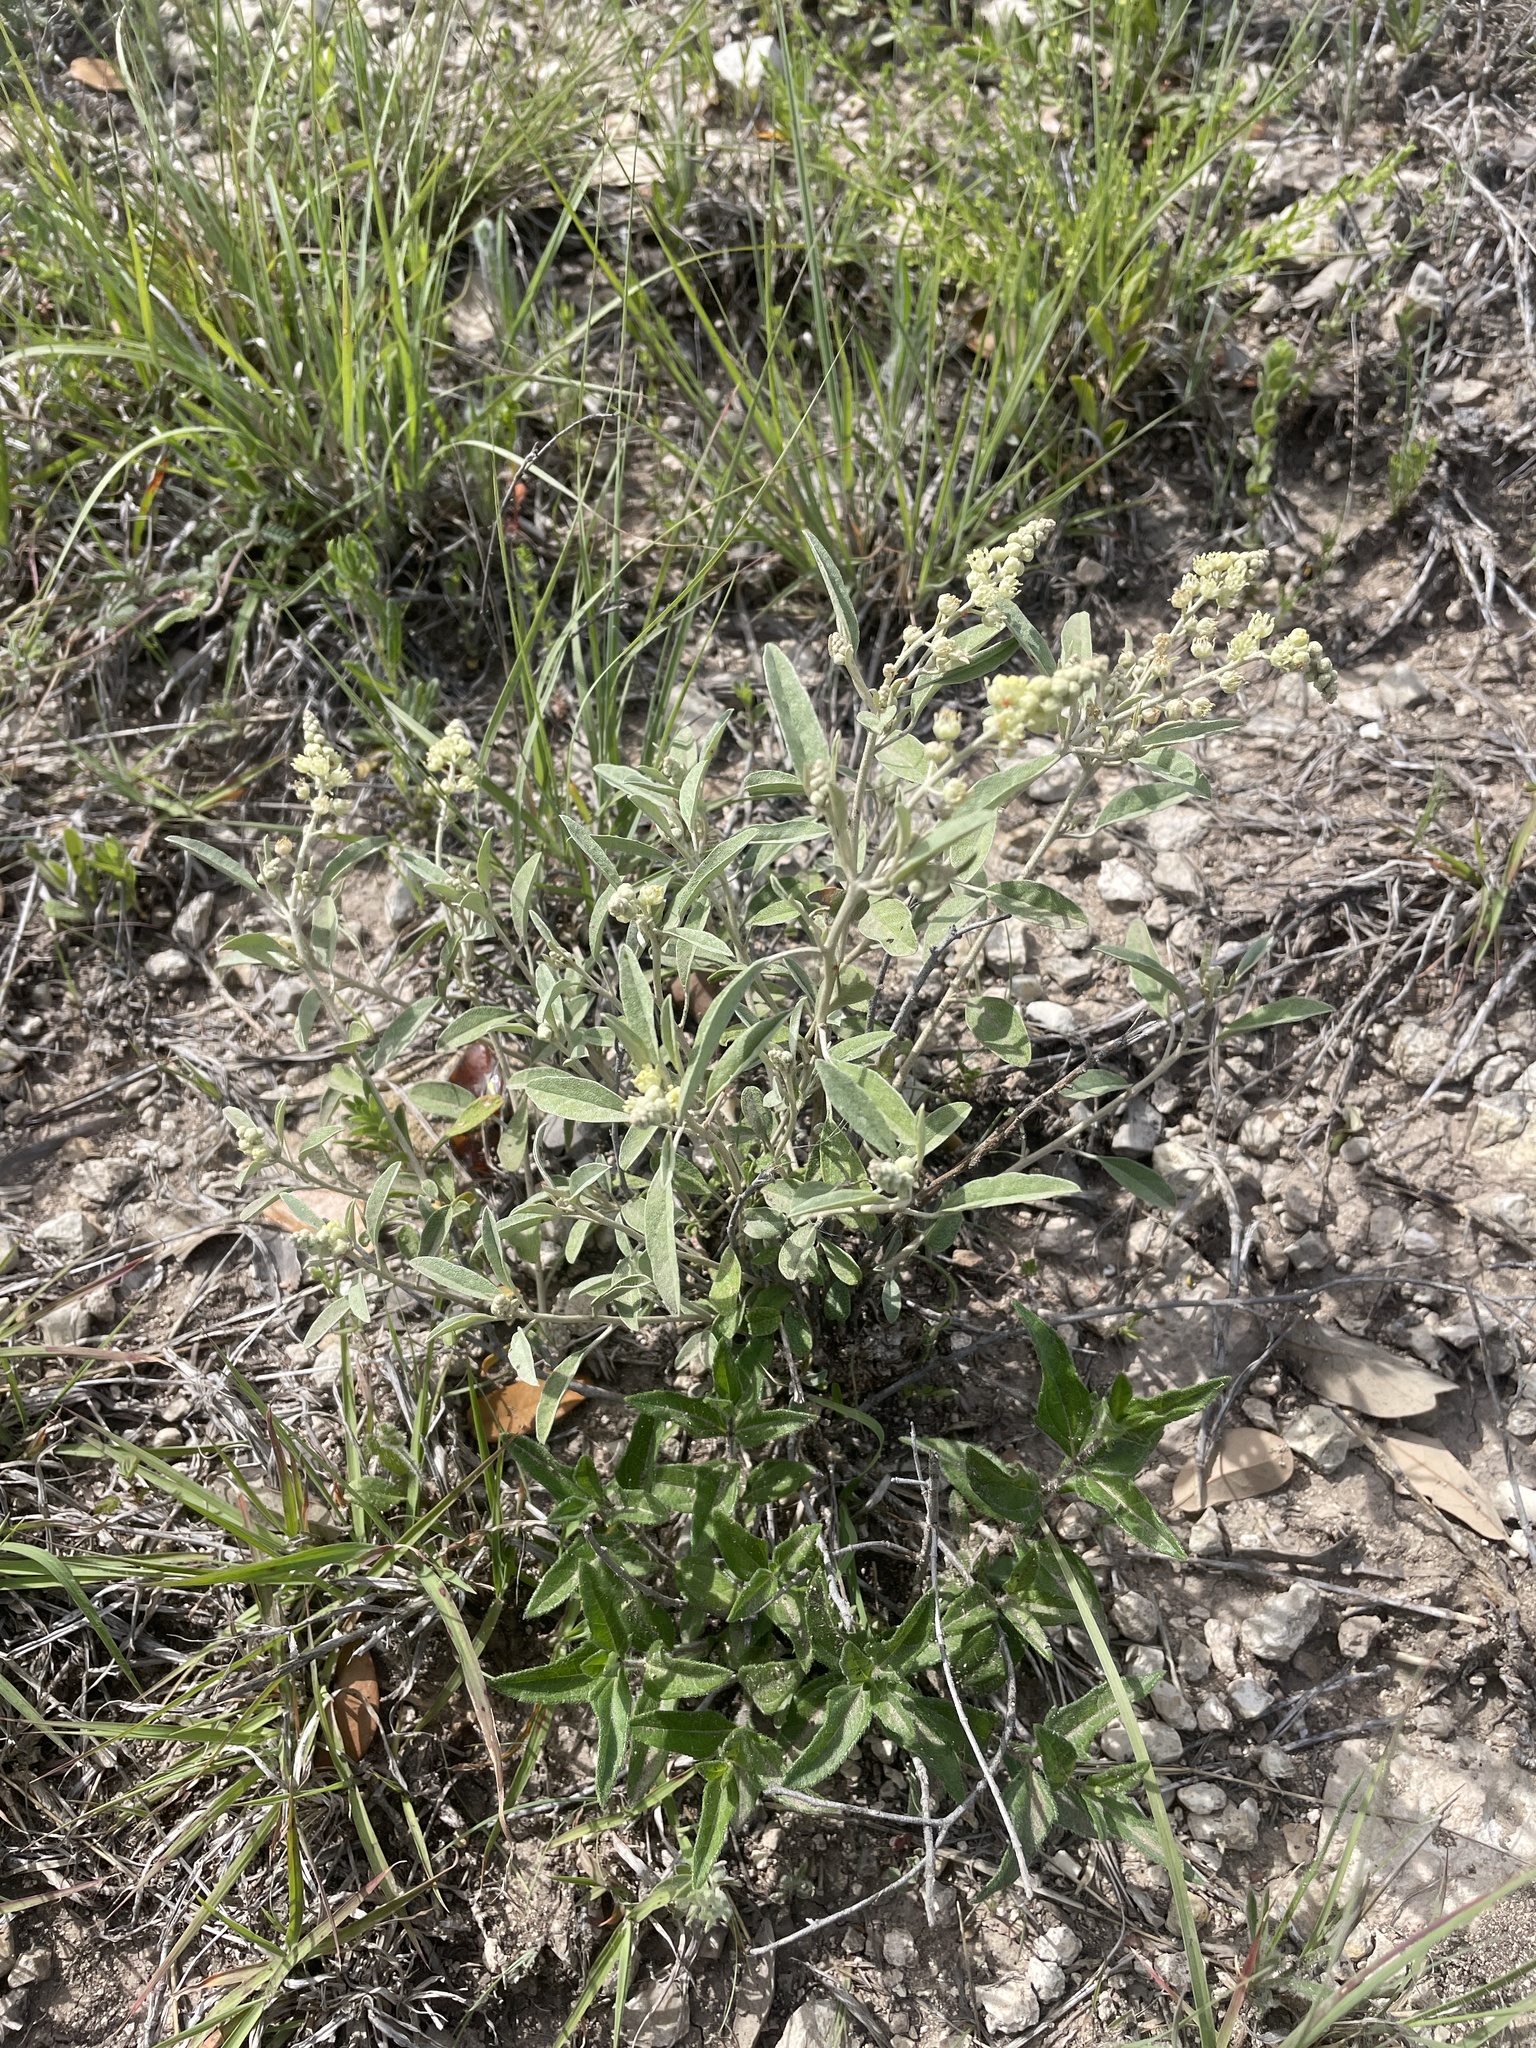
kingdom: Plantae
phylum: Tracheophyta
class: Magnoliopsida
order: Malpighiales
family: Euphorbiaceae
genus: Croton
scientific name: Croton dioicus
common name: Grassland croton
